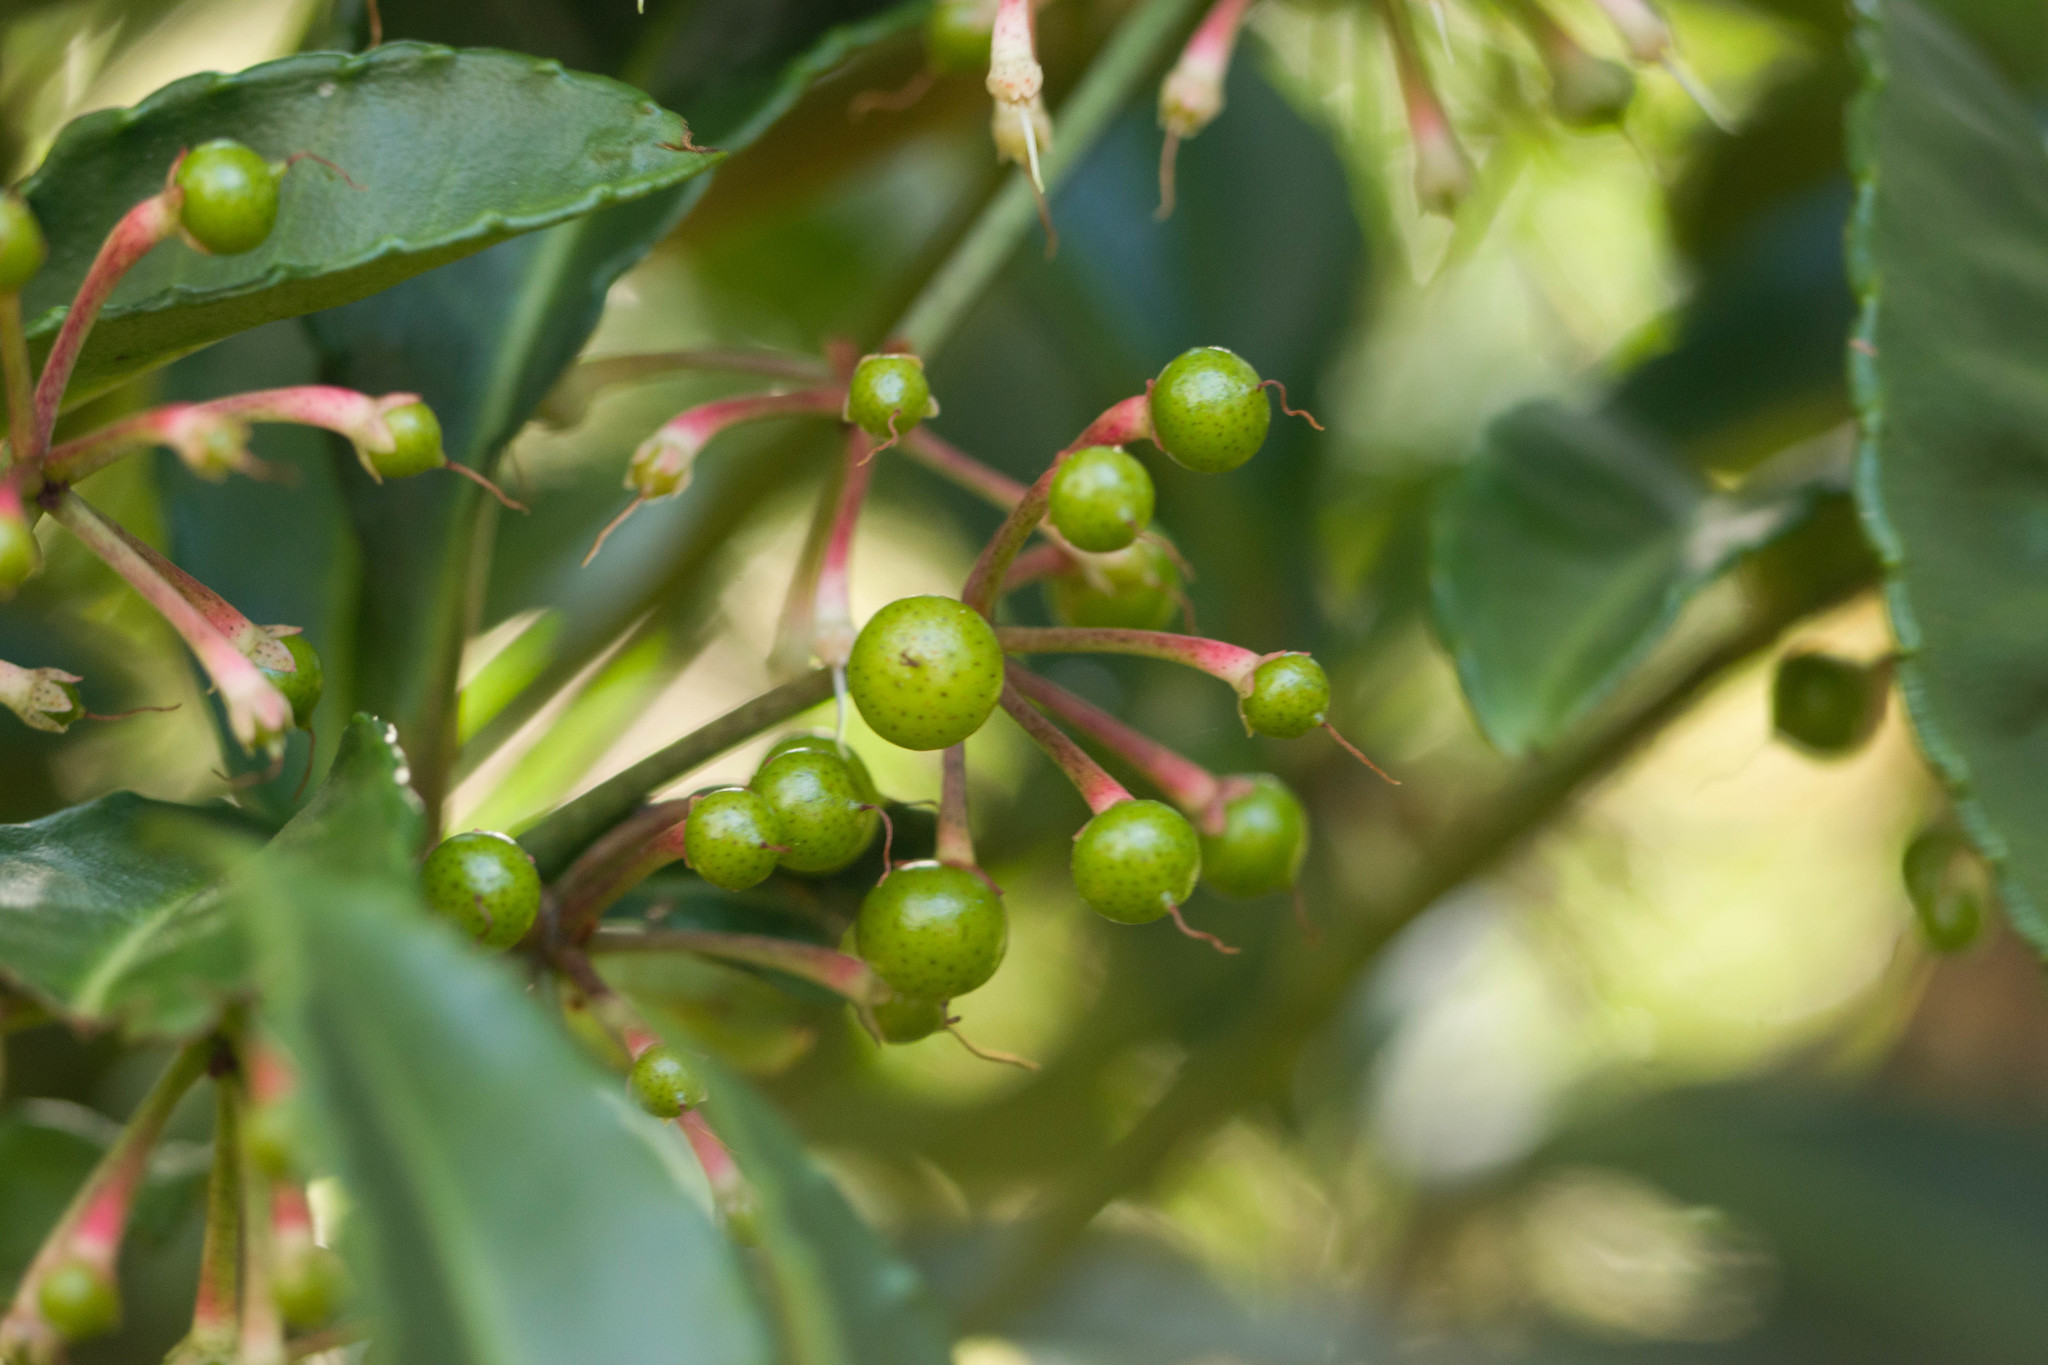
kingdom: Plantae
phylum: Tracheophyta
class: Magnoliopsida
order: Ericales
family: Primulaceae
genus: Ardisia
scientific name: Ardisia crenata
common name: Hen's eyes
